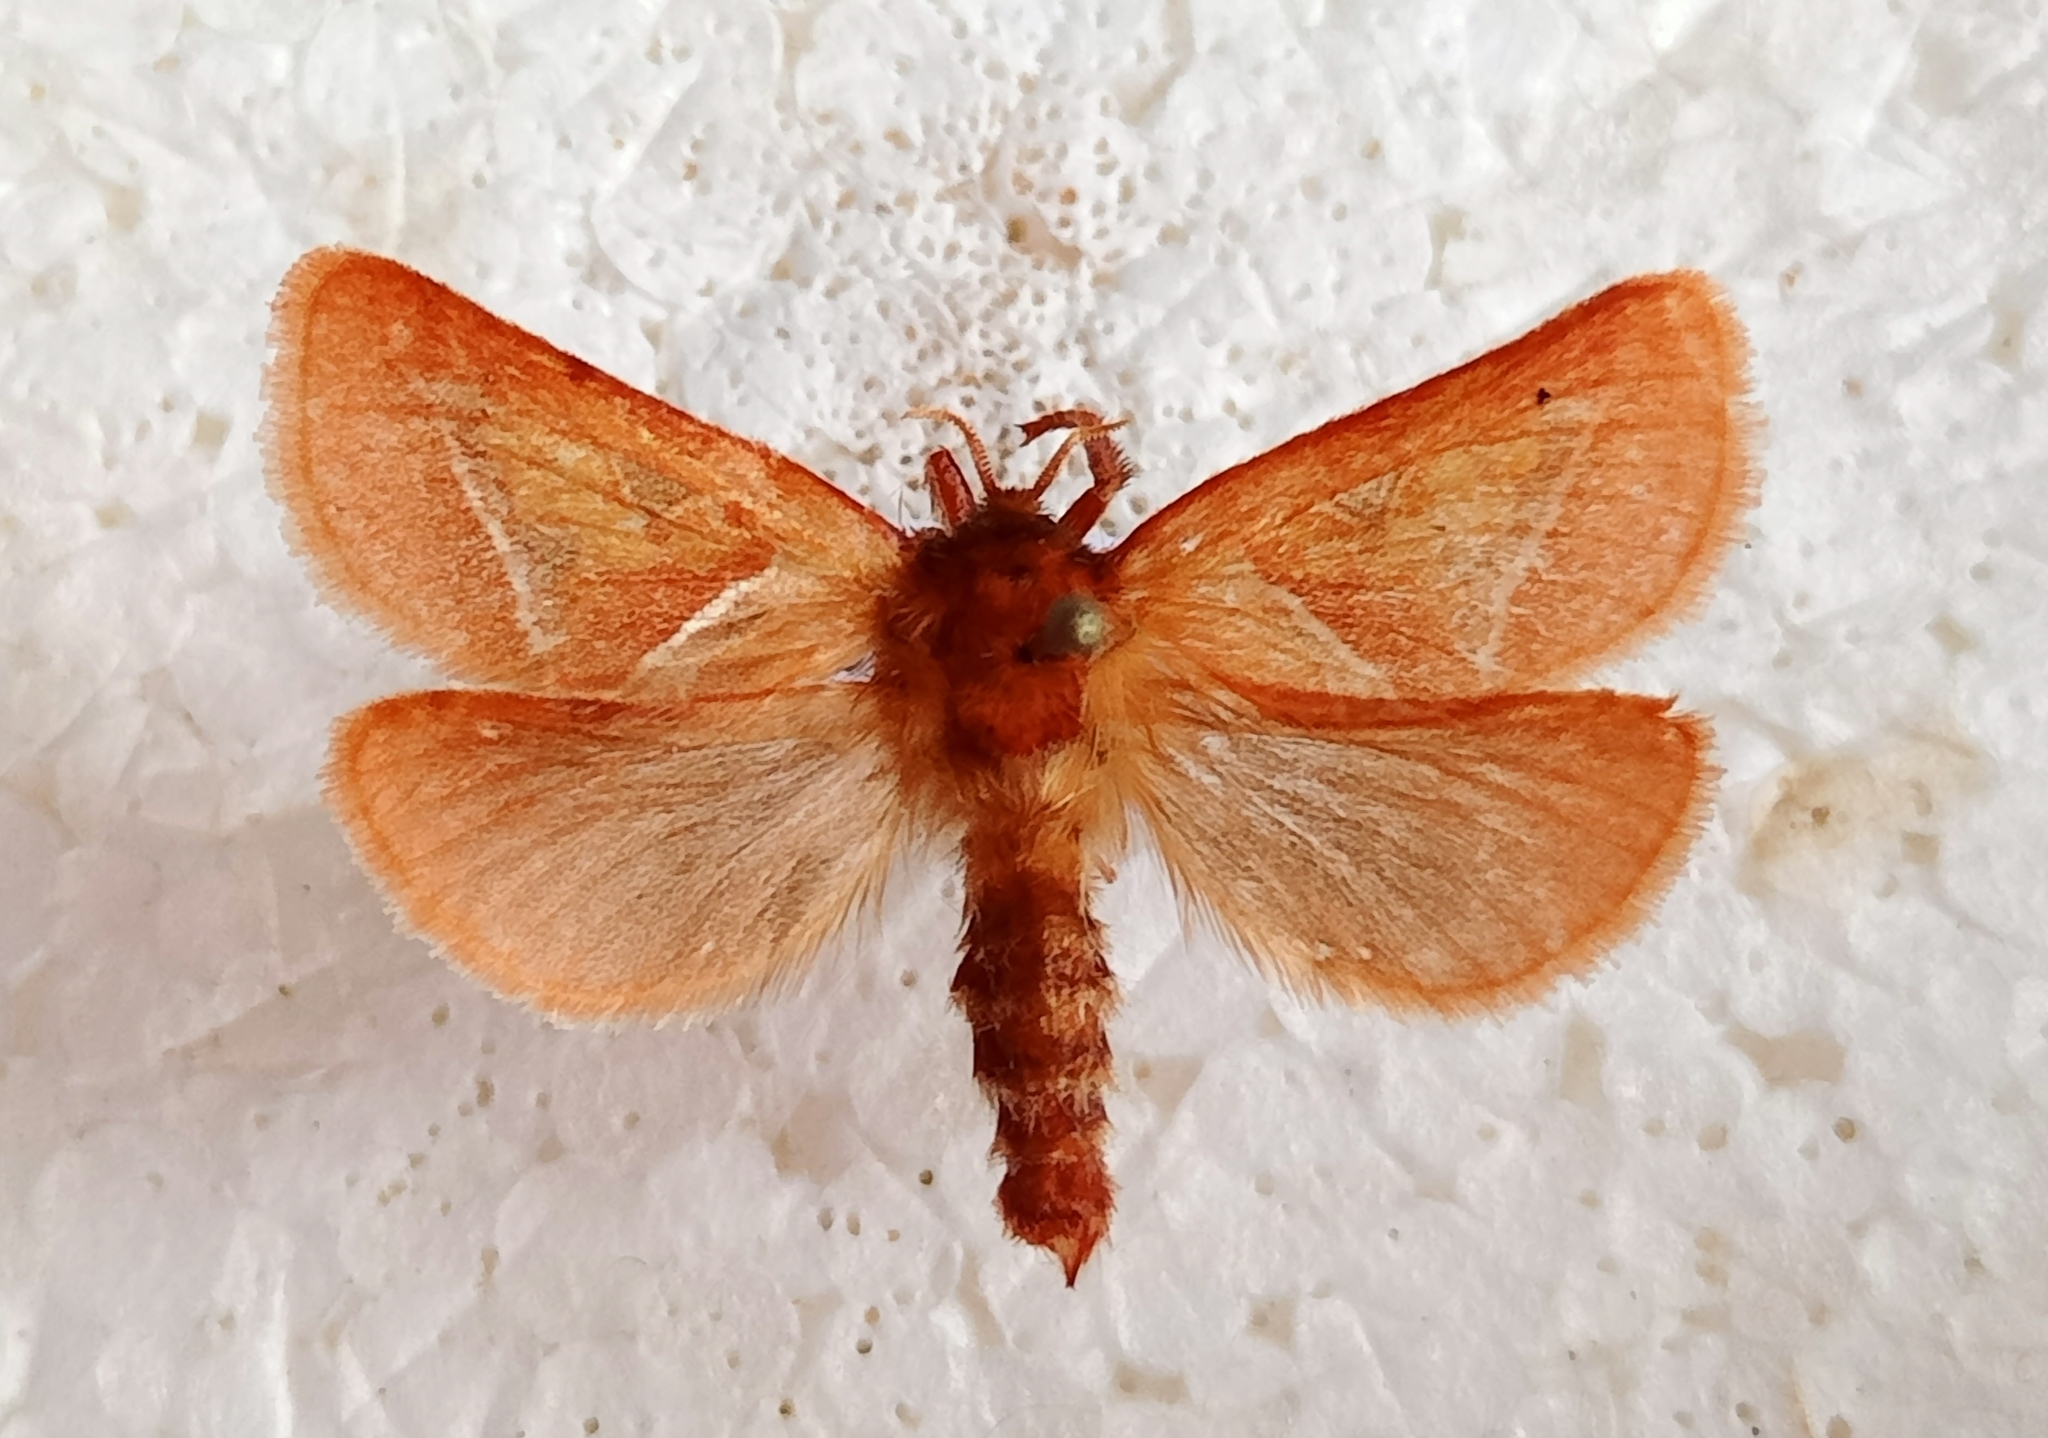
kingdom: Animalia
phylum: Arthropoda
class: Insecta
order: Lepidoptera
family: Hepialidae
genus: Triodia
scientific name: Triodia sylvina
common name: Orange swift
